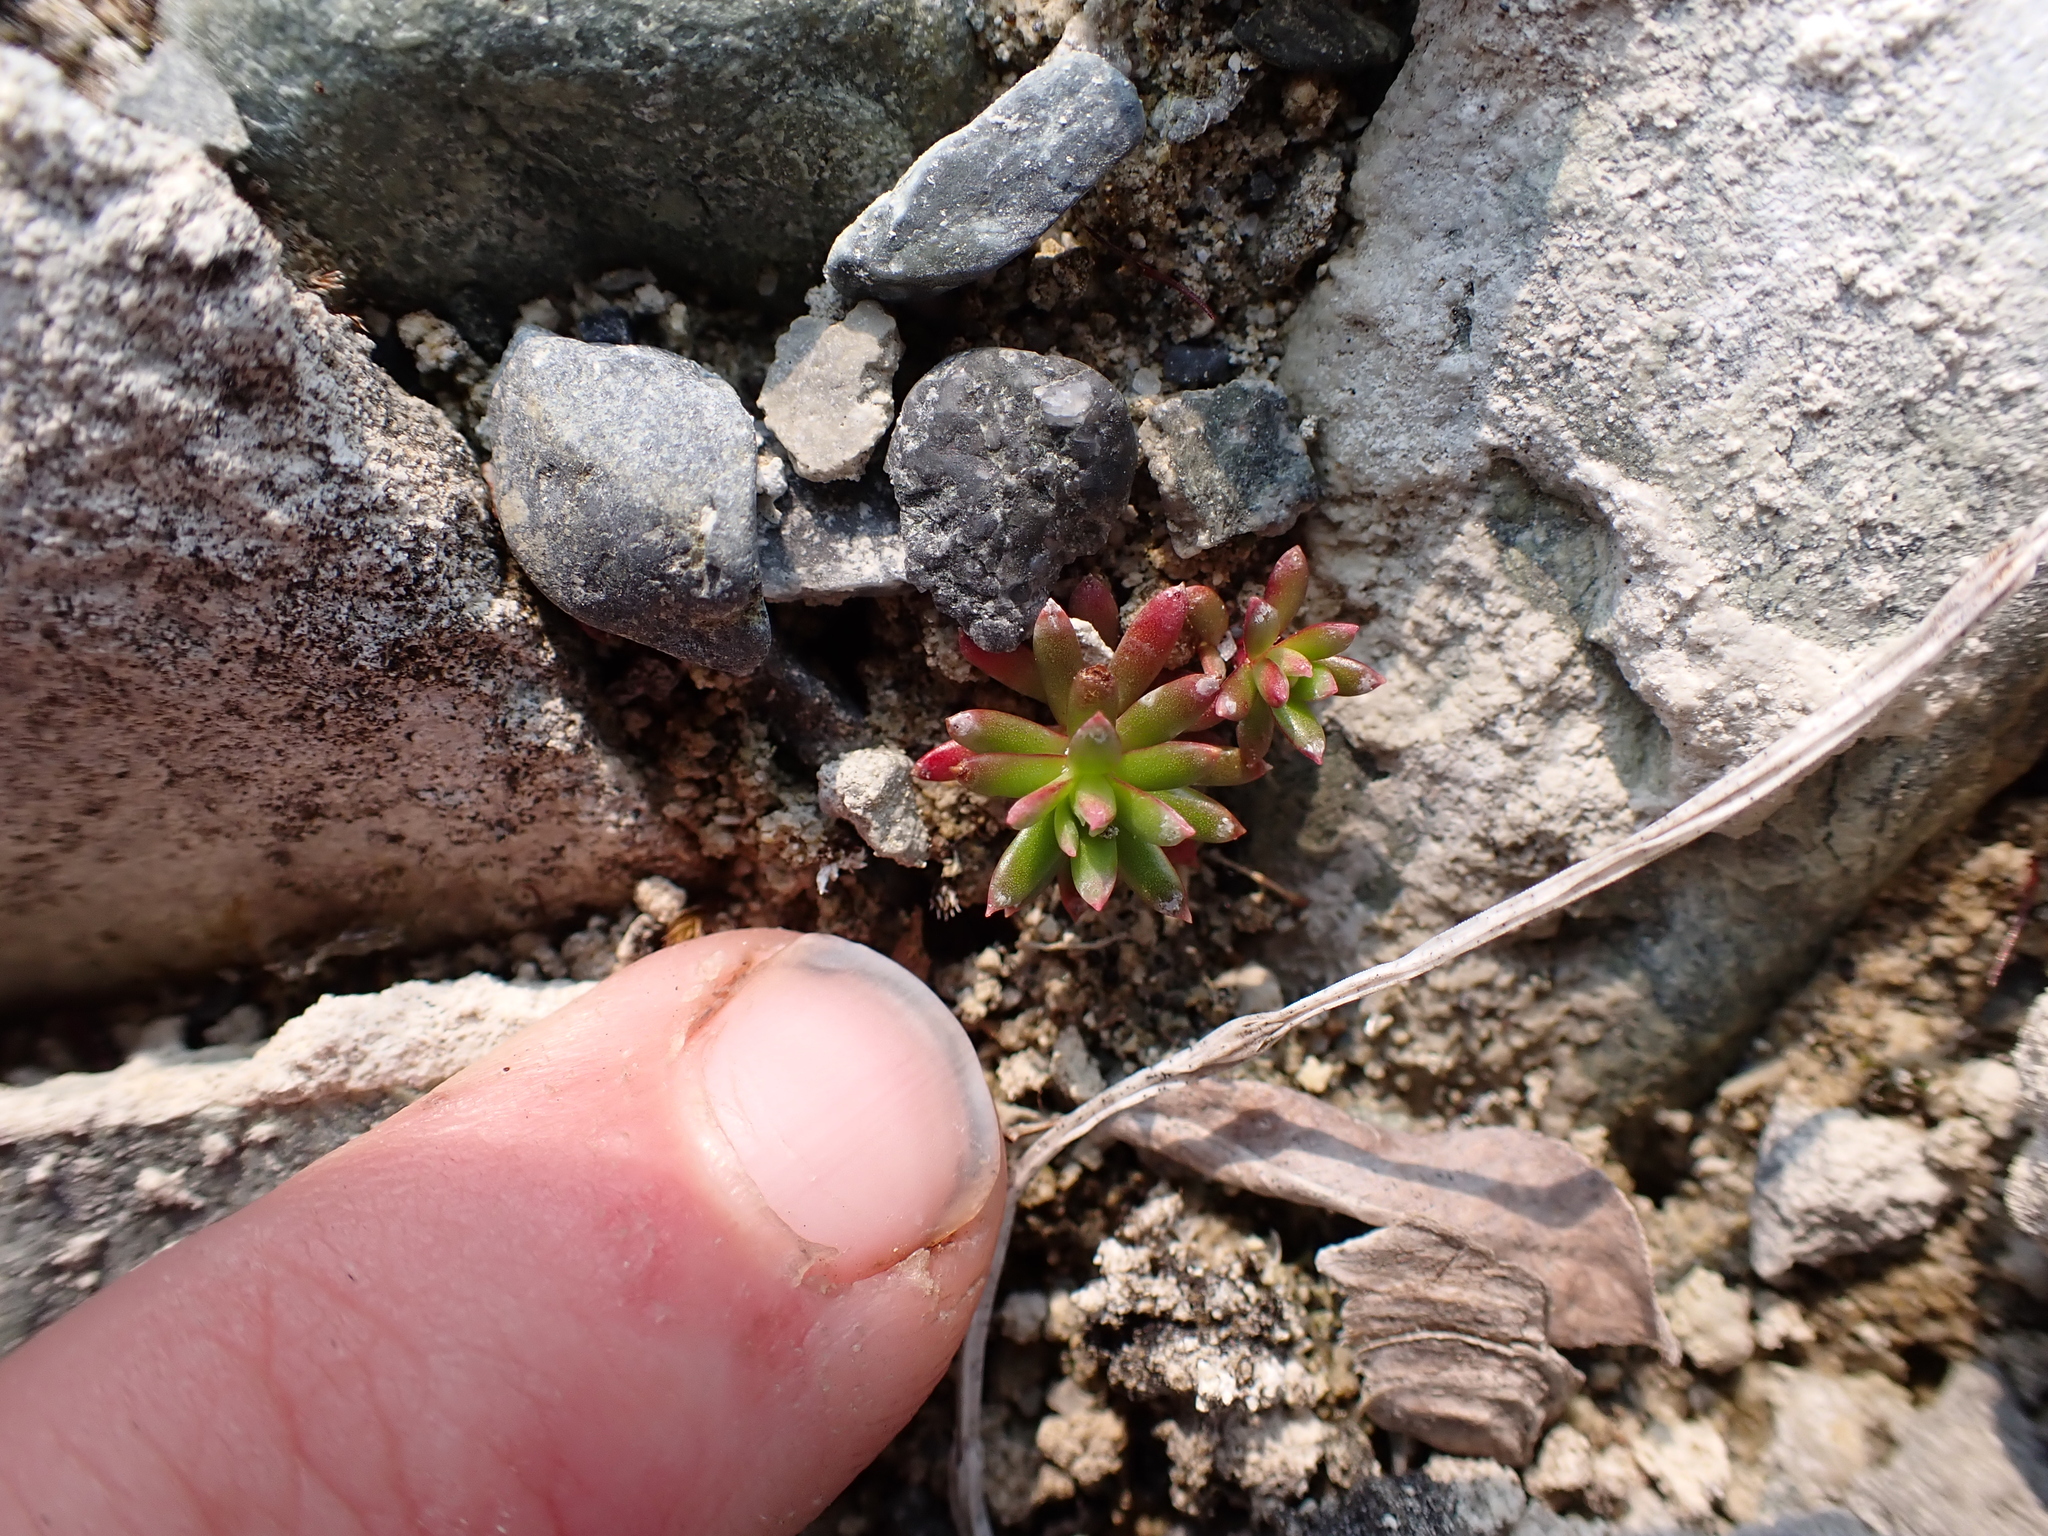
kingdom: Plantae
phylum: Tracheophyta
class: Magnoliopsida
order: Saxifragales
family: Saxifragaceae
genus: Saxifraga
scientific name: Saxifraga aizoides
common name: Yellow mountain saxifrage
